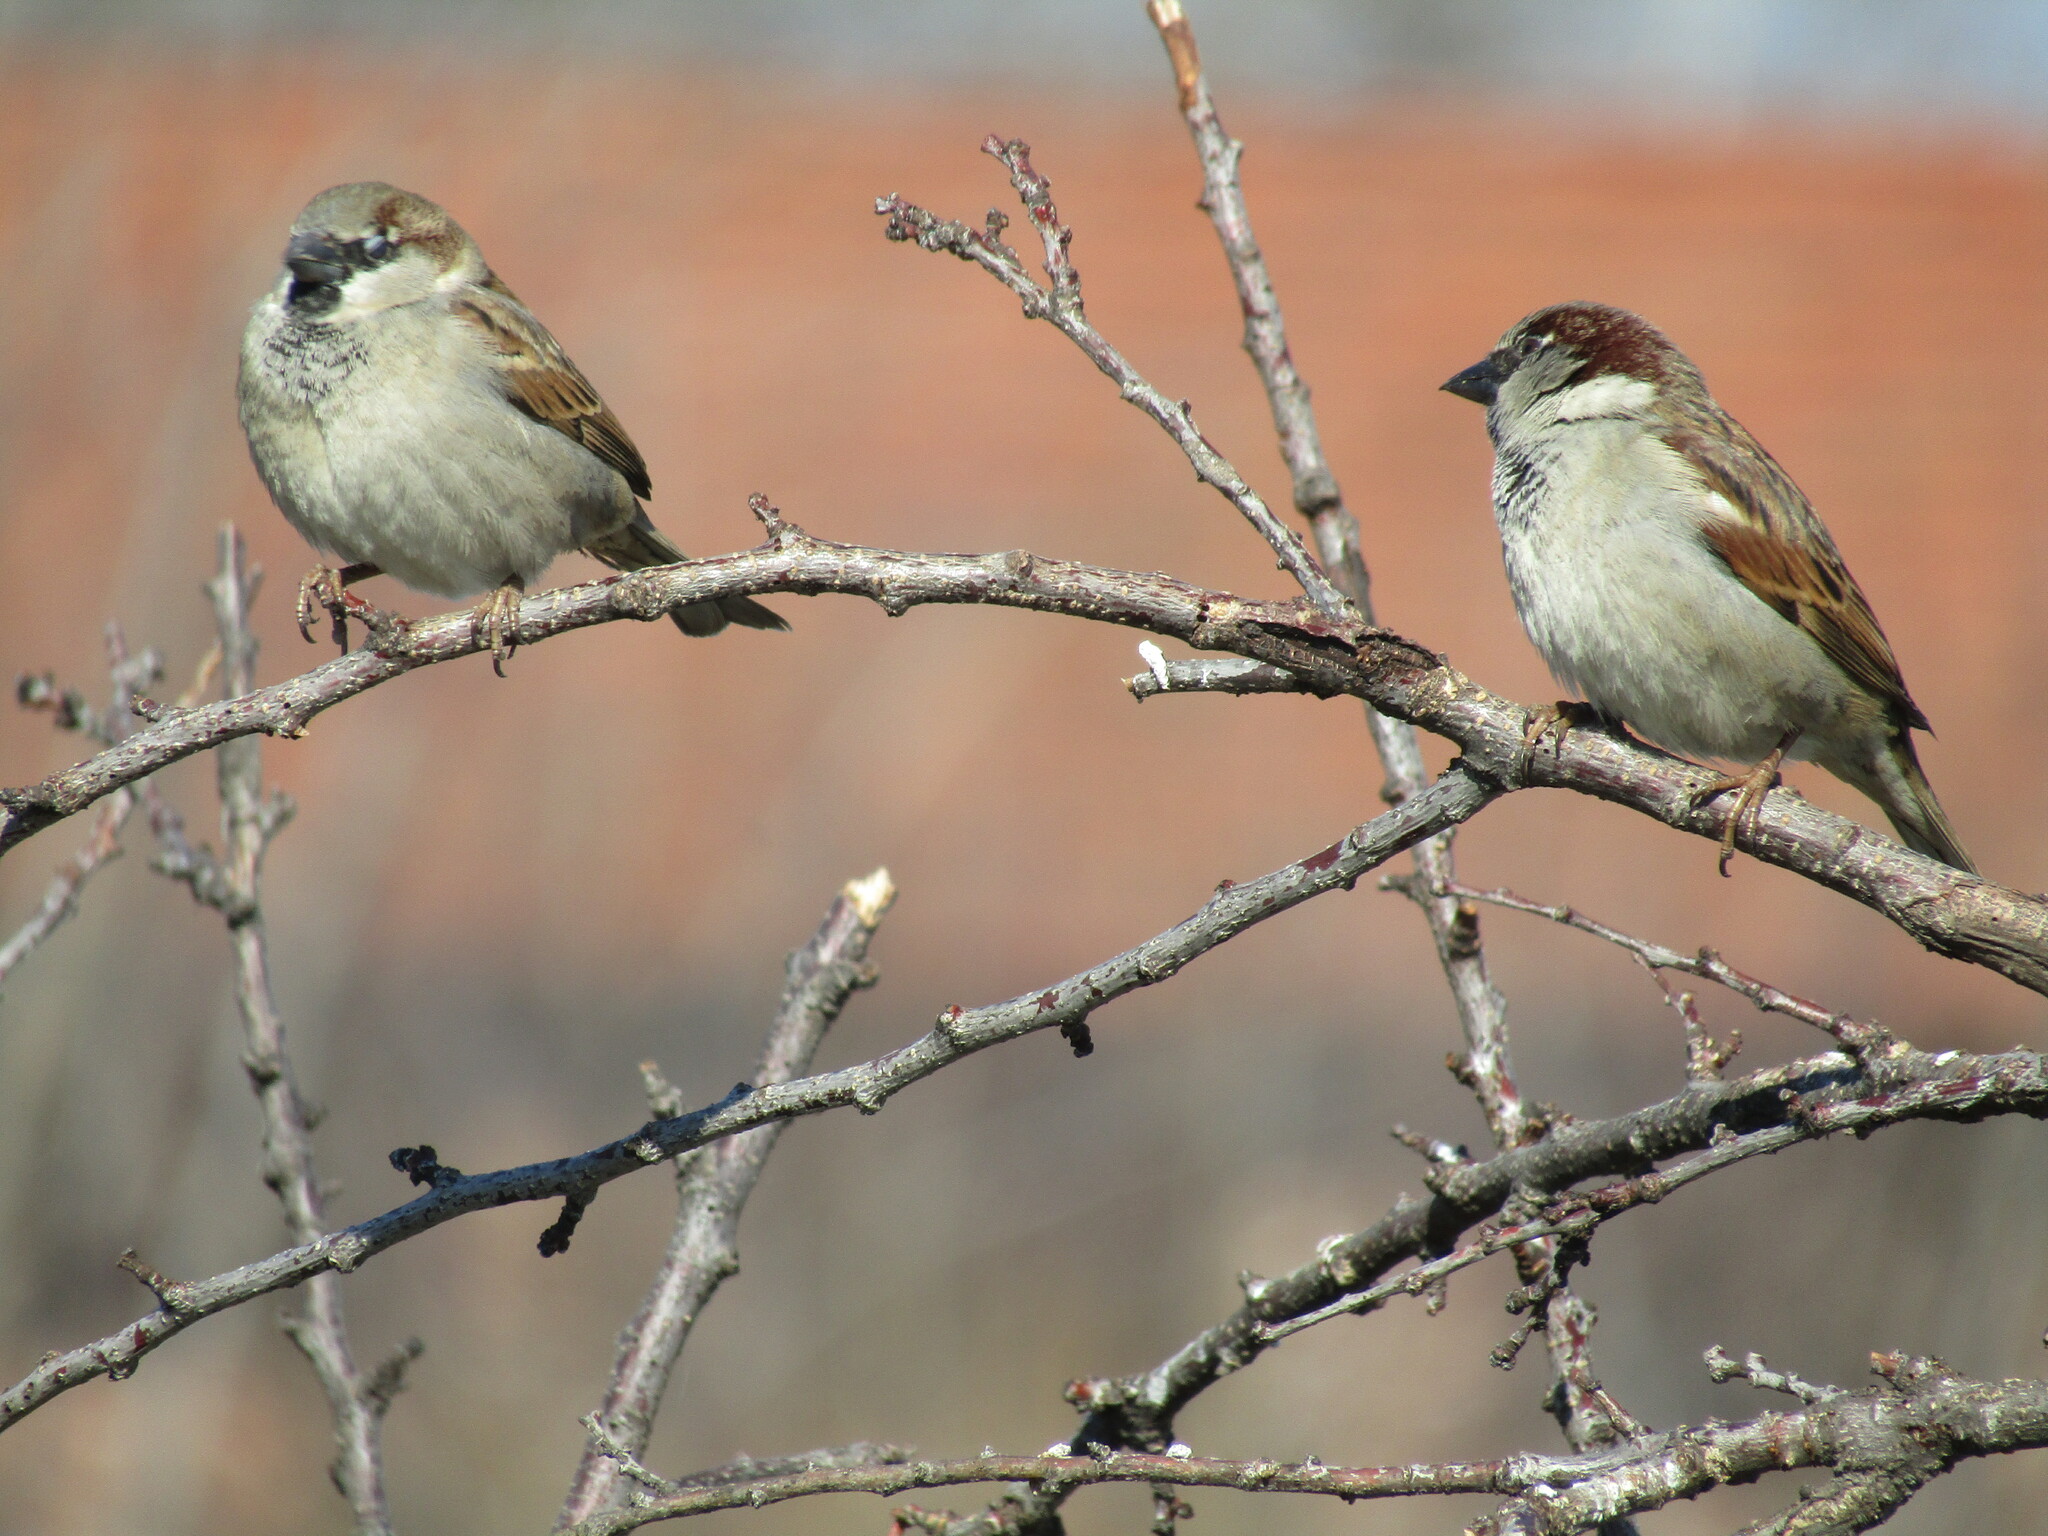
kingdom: Animalia
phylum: Chordata
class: Aves
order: Passeriformes
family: Passeridae
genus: Passer
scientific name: Passer domesticus
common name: House sparrow
